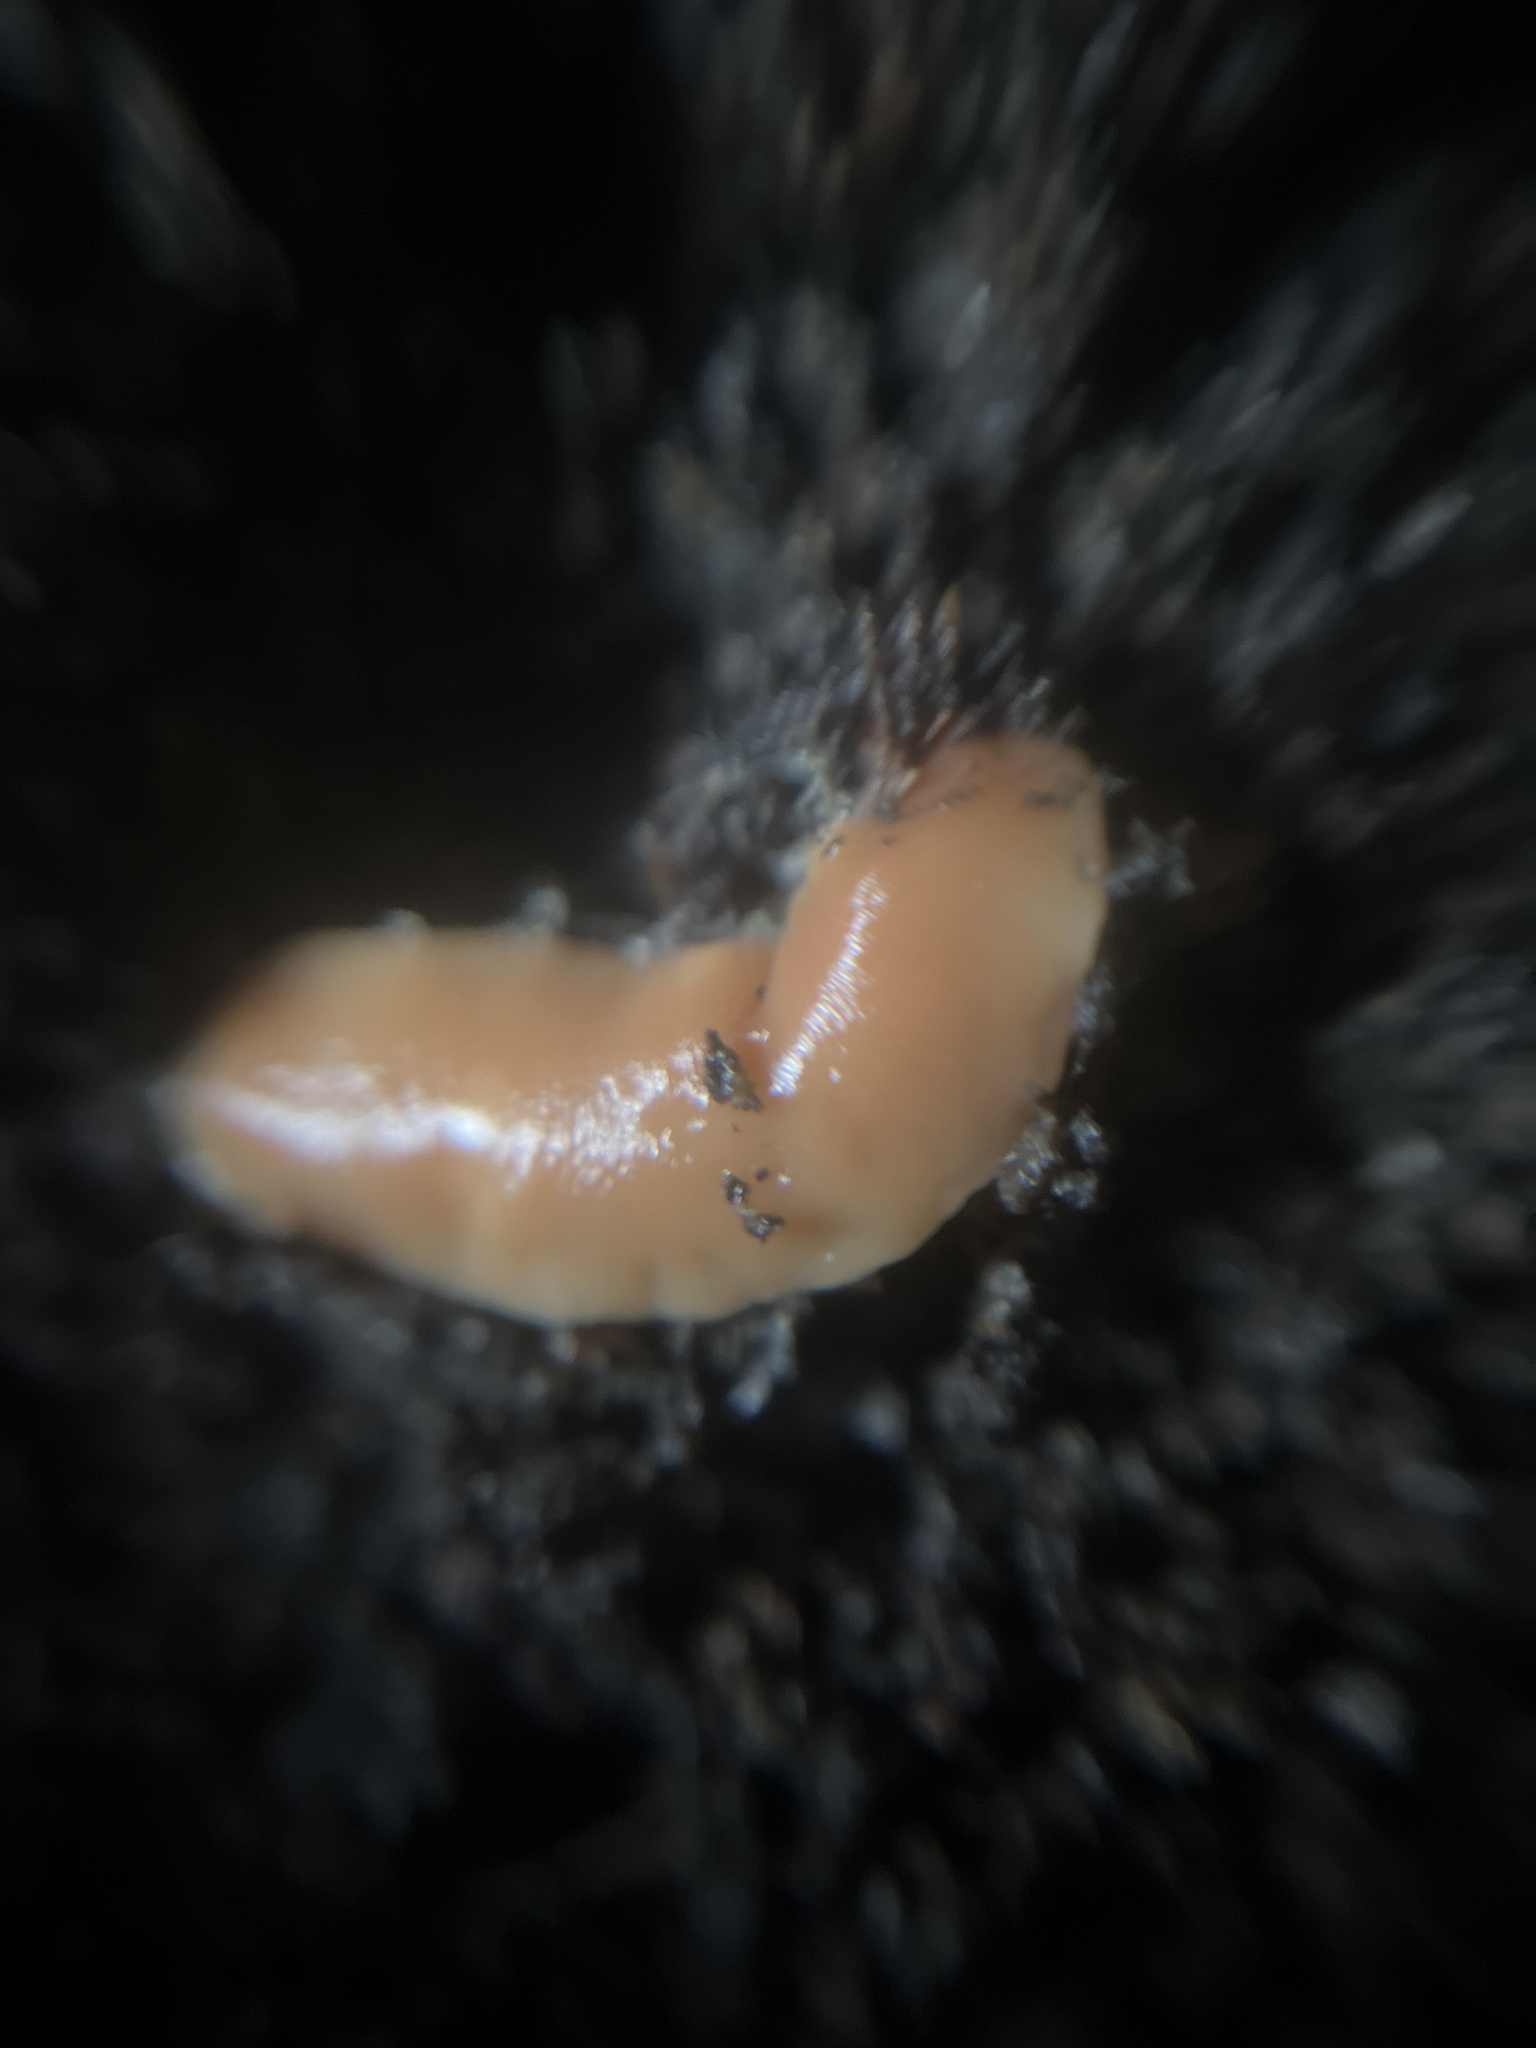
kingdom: Animalia
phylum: Platyhelminthes
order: Tricladida
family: Geoplanidae
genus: Australoplana
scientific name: Australoplana sanguinea
